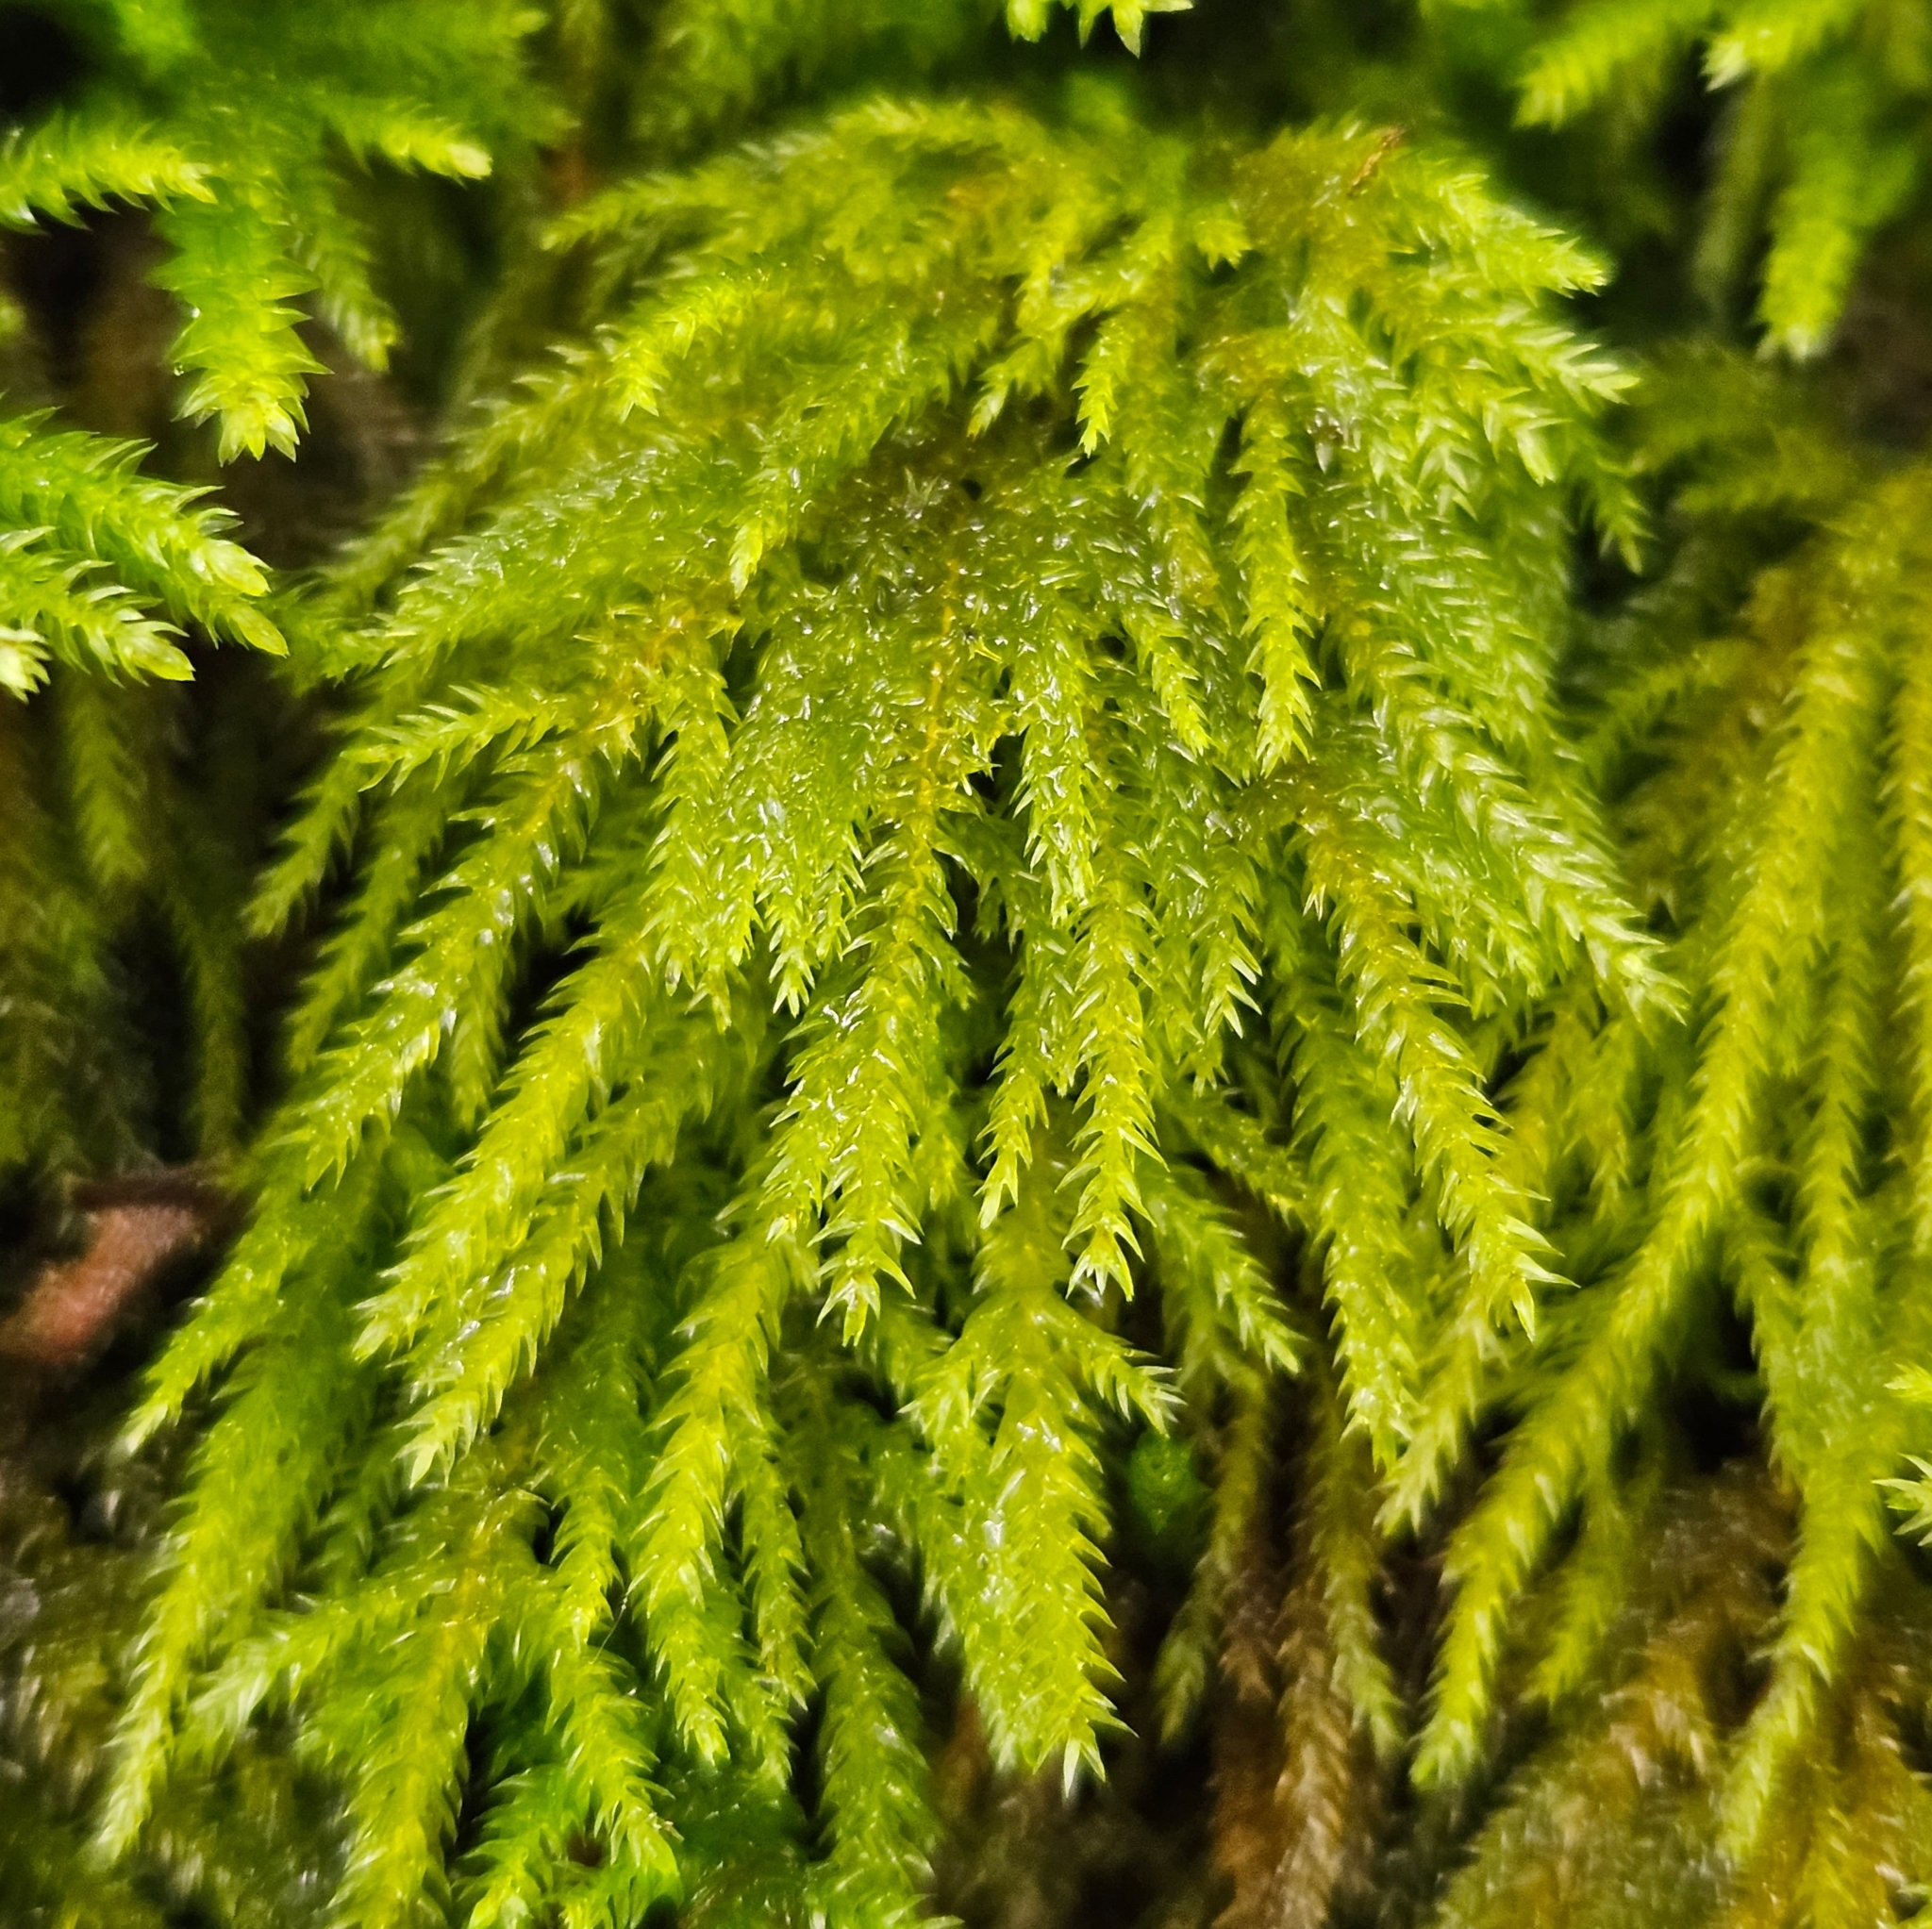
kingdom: Plantae
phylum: Bryophyta
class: Bryopsida
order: Hypnales
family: Neckeraceae
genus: Thamnobryum
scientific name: Thamnobryum alopecurum
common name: Fox-tail feather-moss
